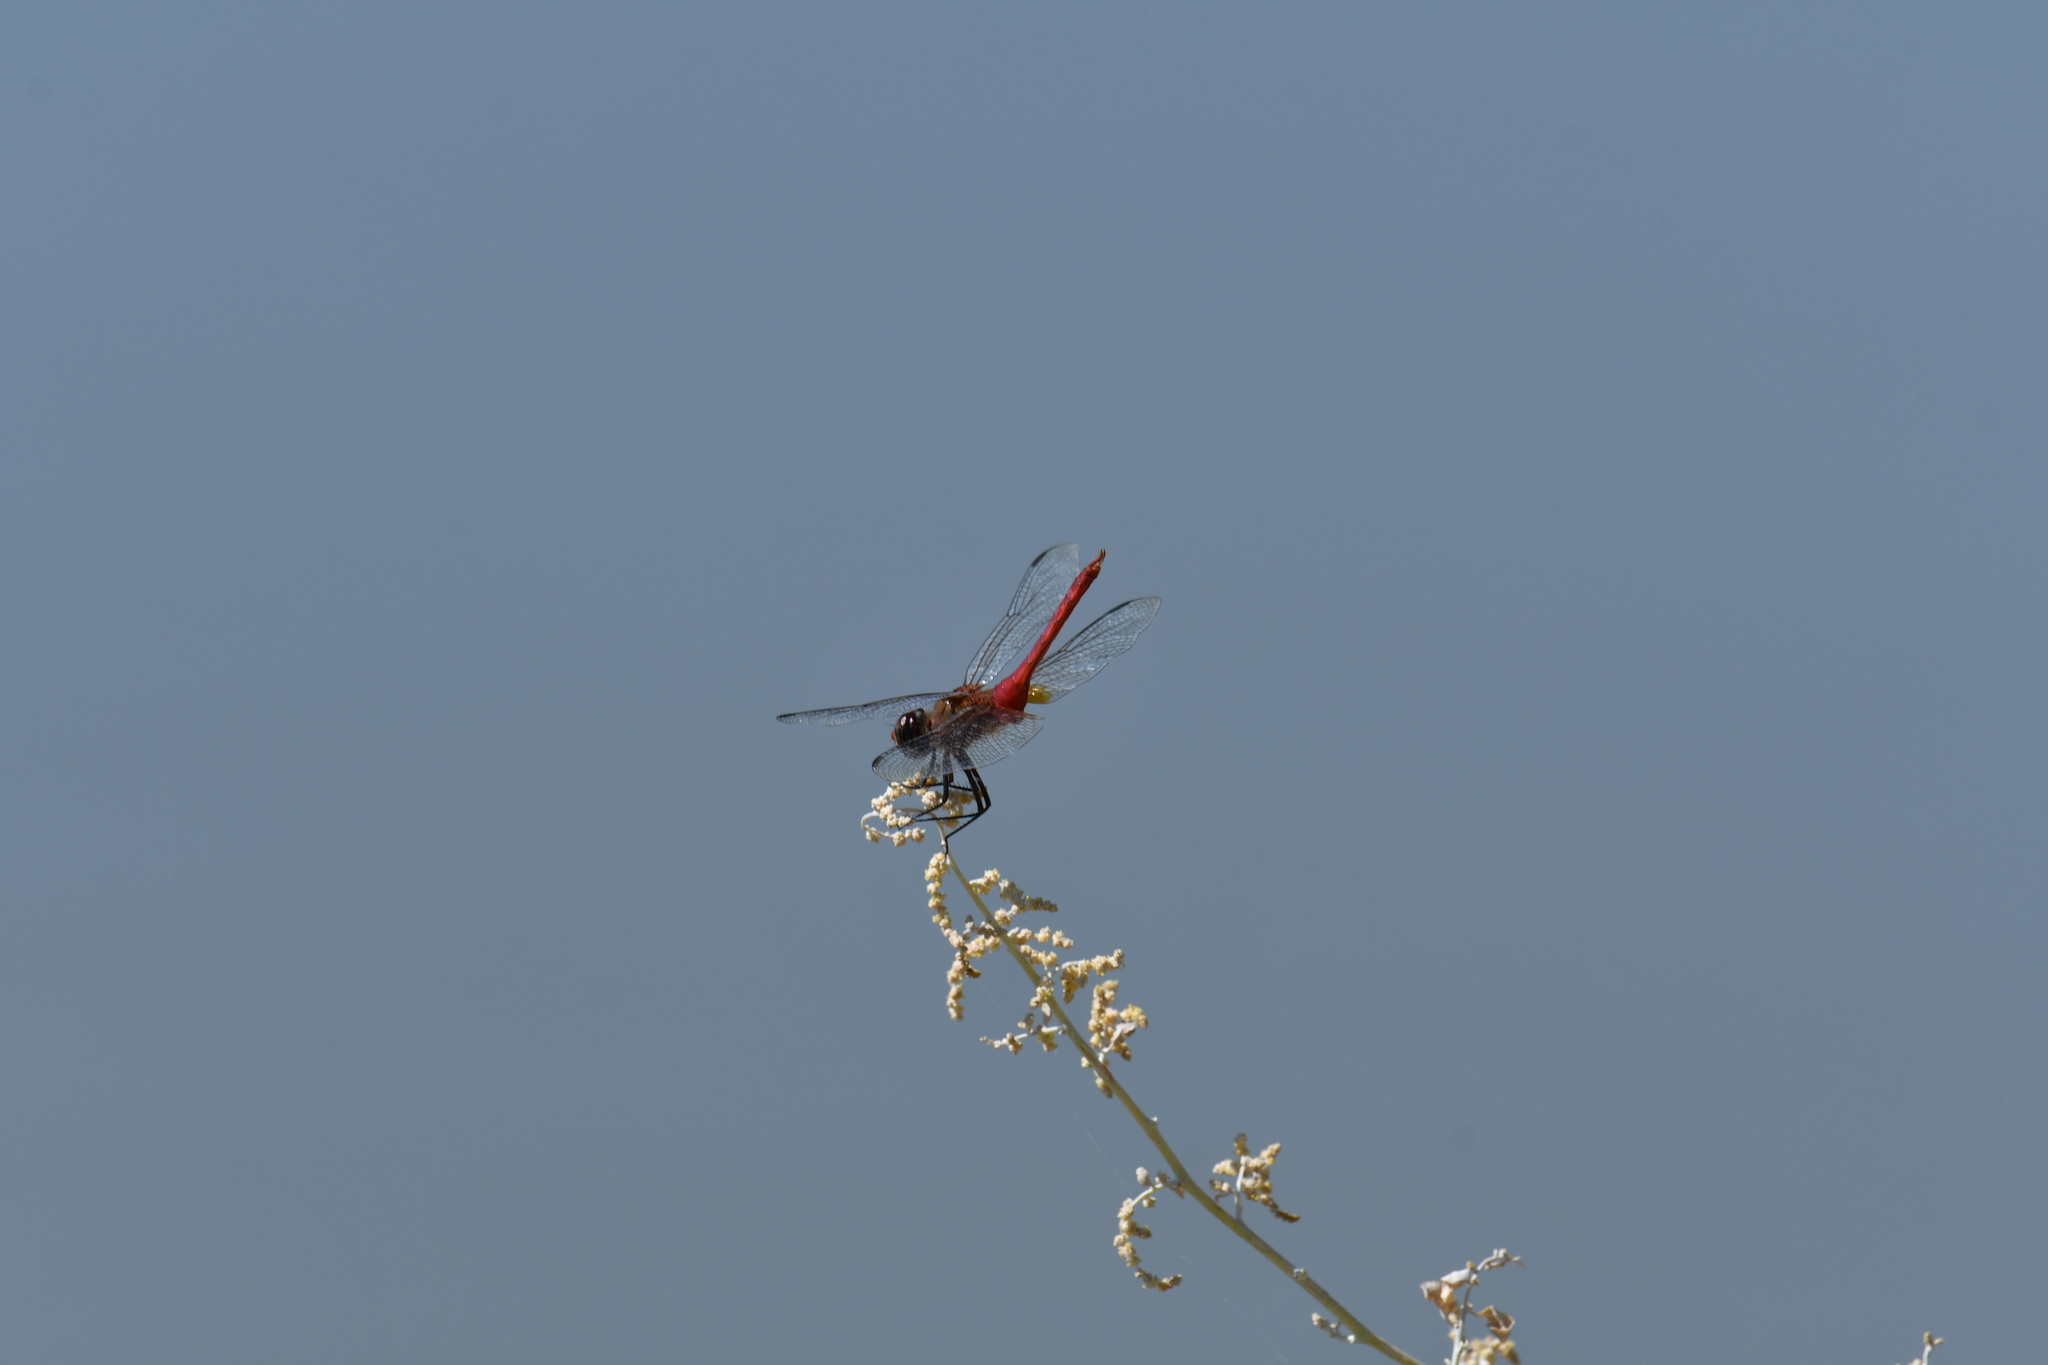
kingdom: Animalia
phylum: Arthropoda
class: Insecta
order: Odonata
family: Libellulidae
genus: Brachymesia
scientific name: Brachymesia furcata
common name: Red-taled pennant
